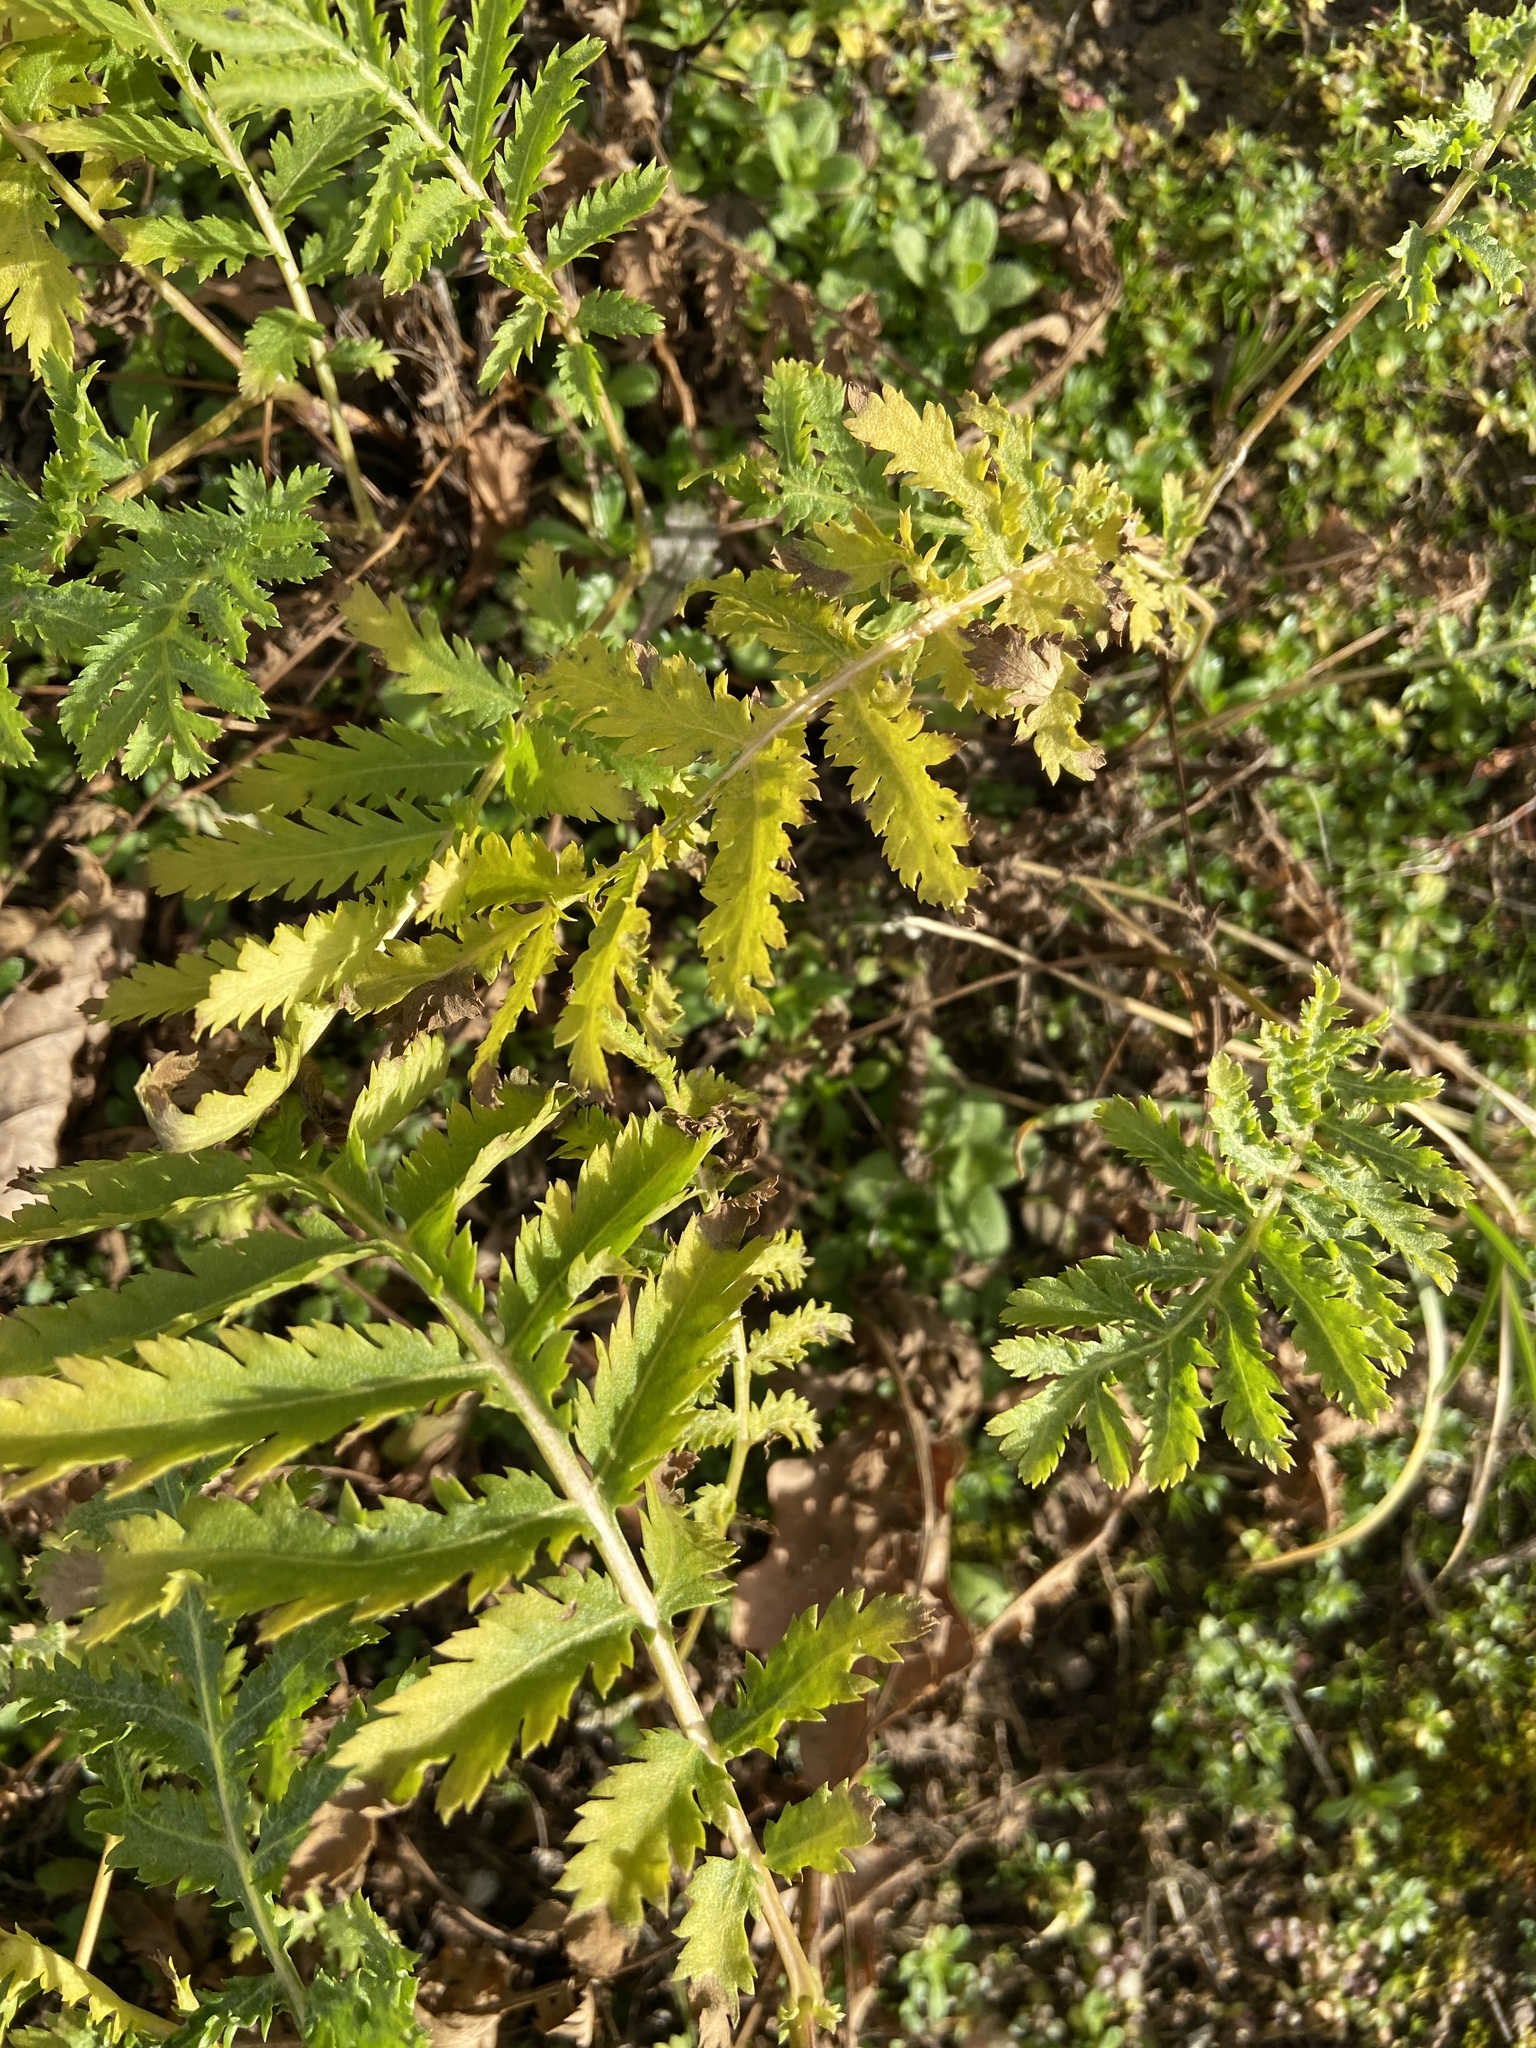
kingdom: Plantae
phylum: Tracheophyta
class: Magnoliopsida
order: Asterales
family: Asteraceae
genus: Tanacetum
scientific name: Tanacetum vulgare
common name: Common tansy
